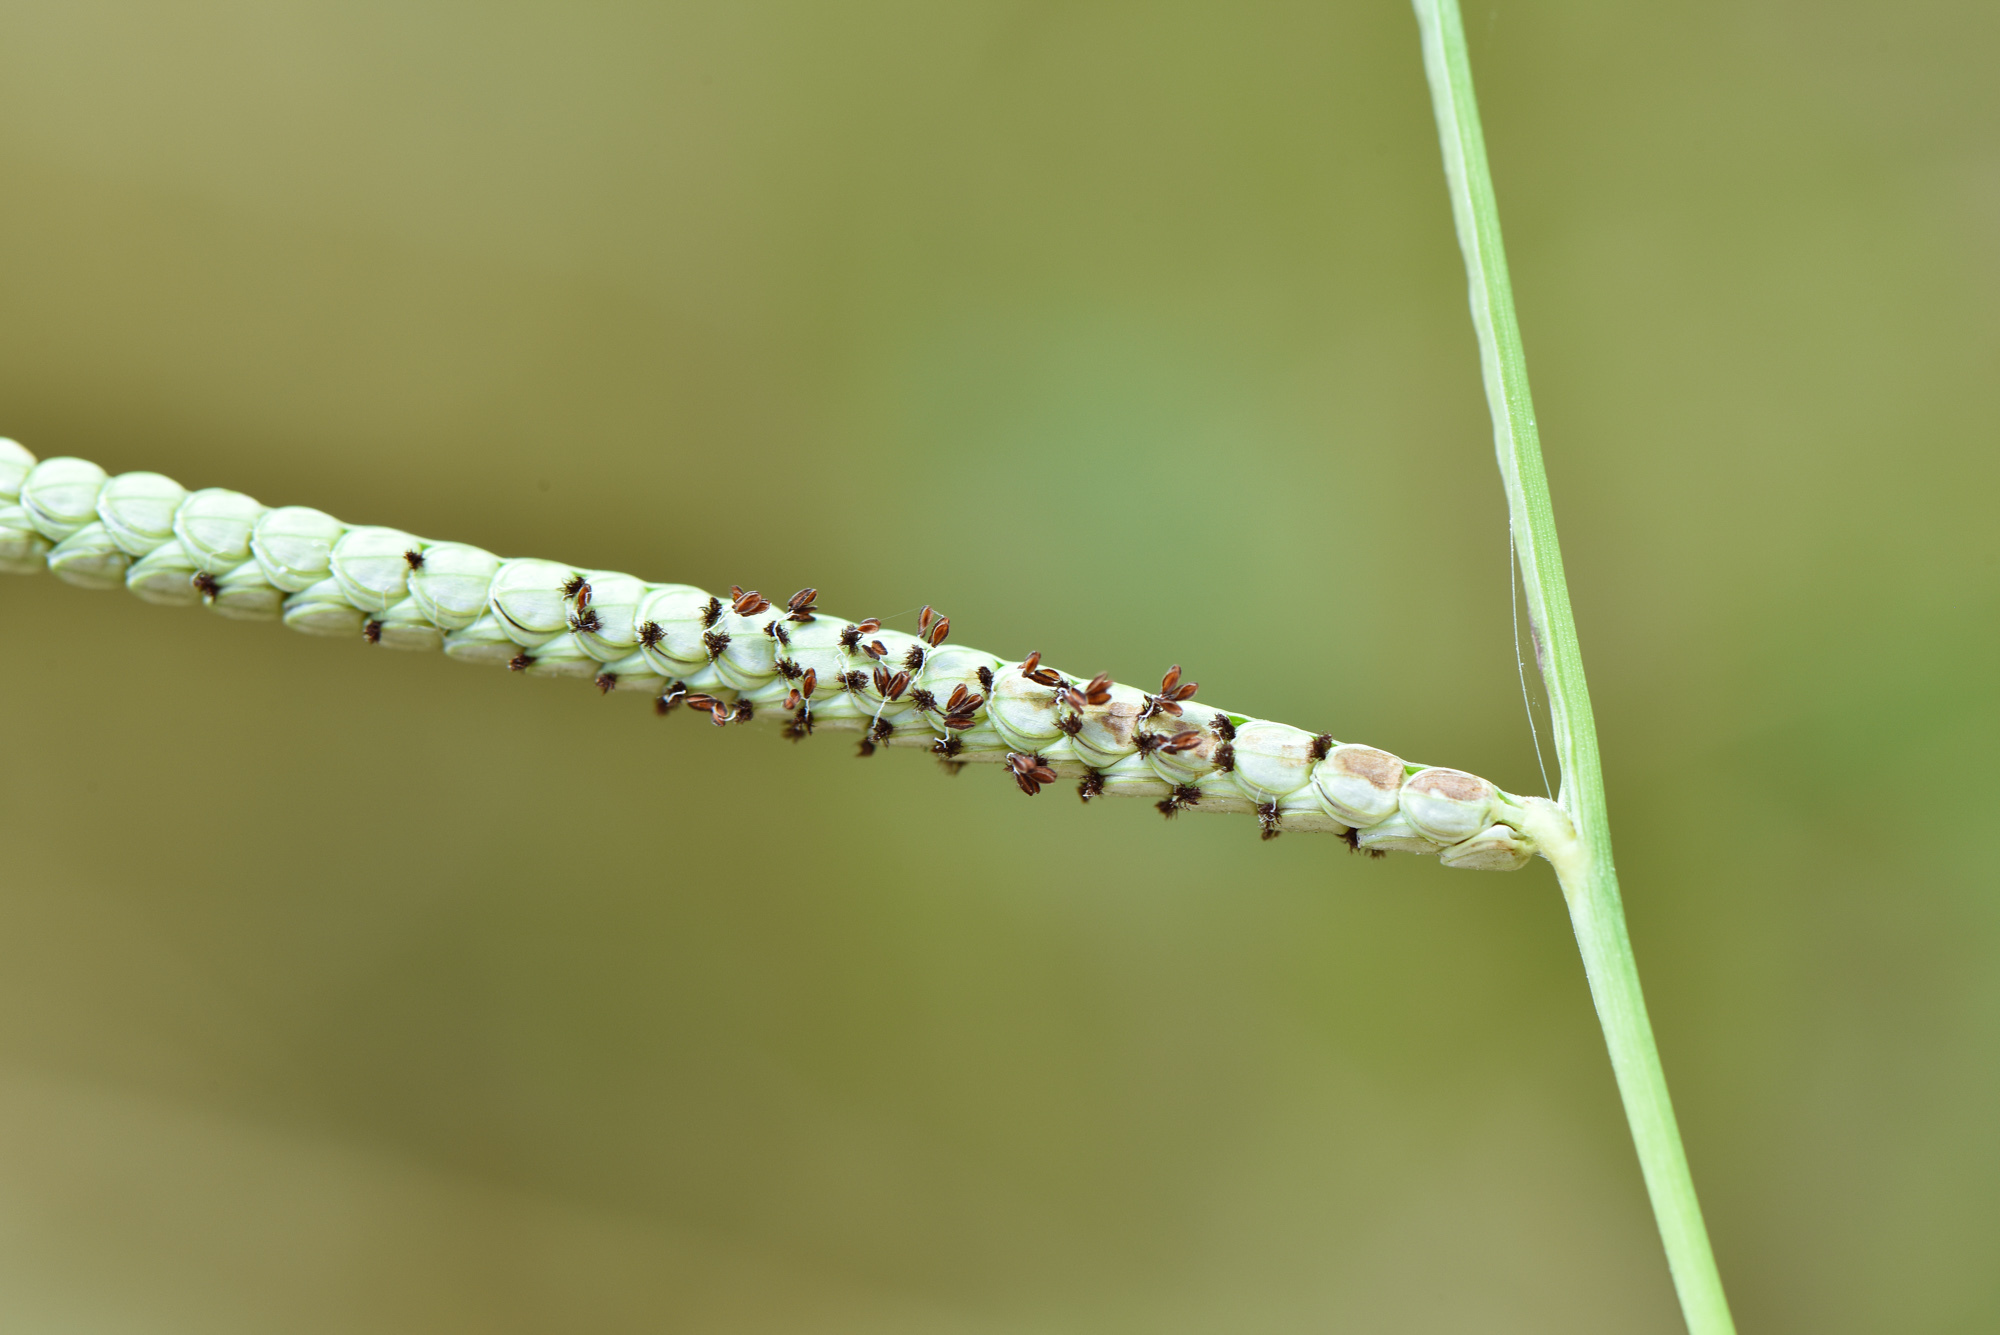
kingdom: Plantae
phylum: Tracheophyta
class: Liliopsida
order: Poales
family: Poaceae
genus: Paspalum
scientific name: Paspalum orbiculare
